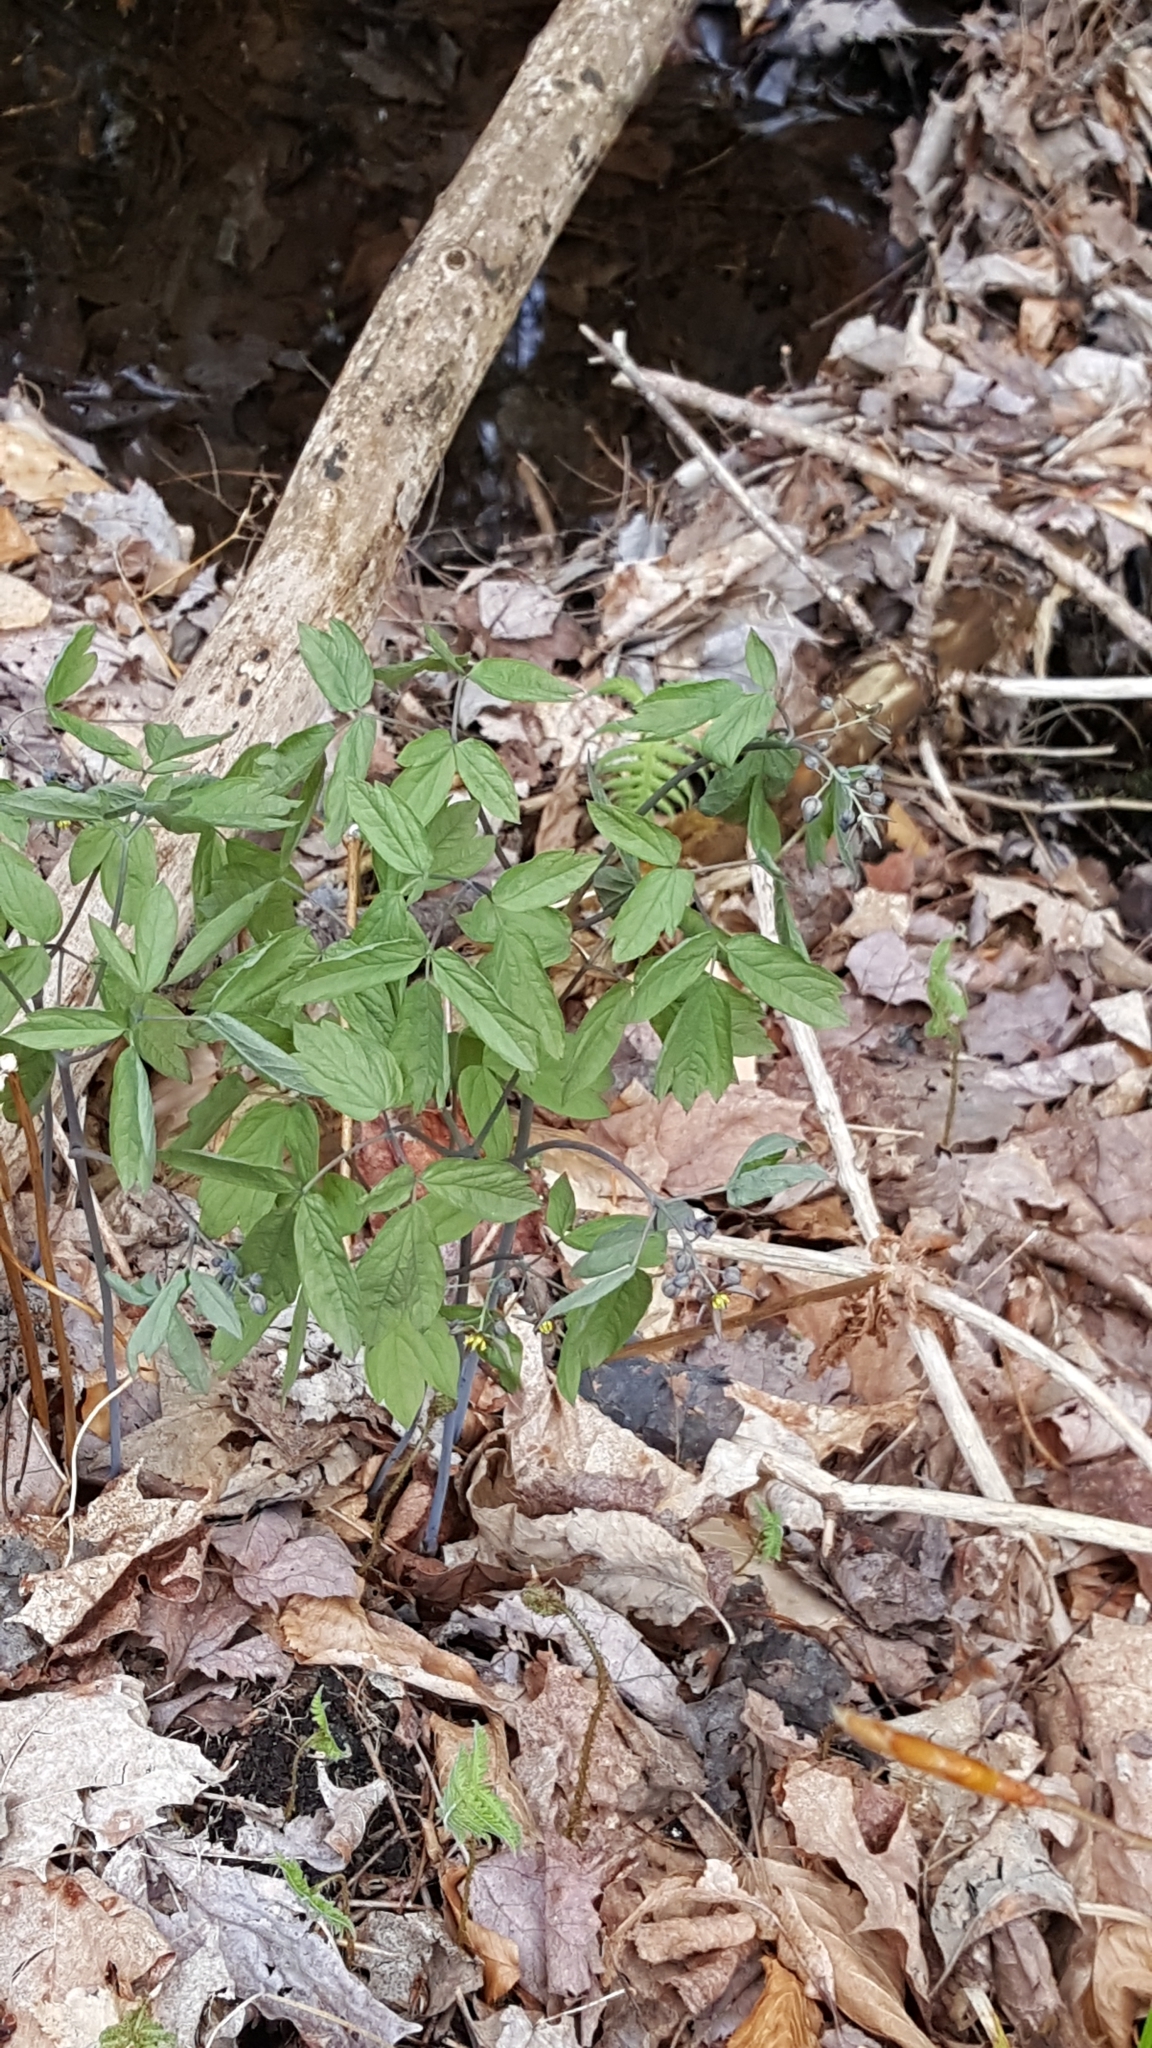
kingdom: Plantae
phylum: Tracheophyta
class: Magnoliopsida
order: Ranunculales
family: Berberidaceae
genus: Caulophyllum
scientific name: Caulophyllum giganteum
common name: Blue cohosh
